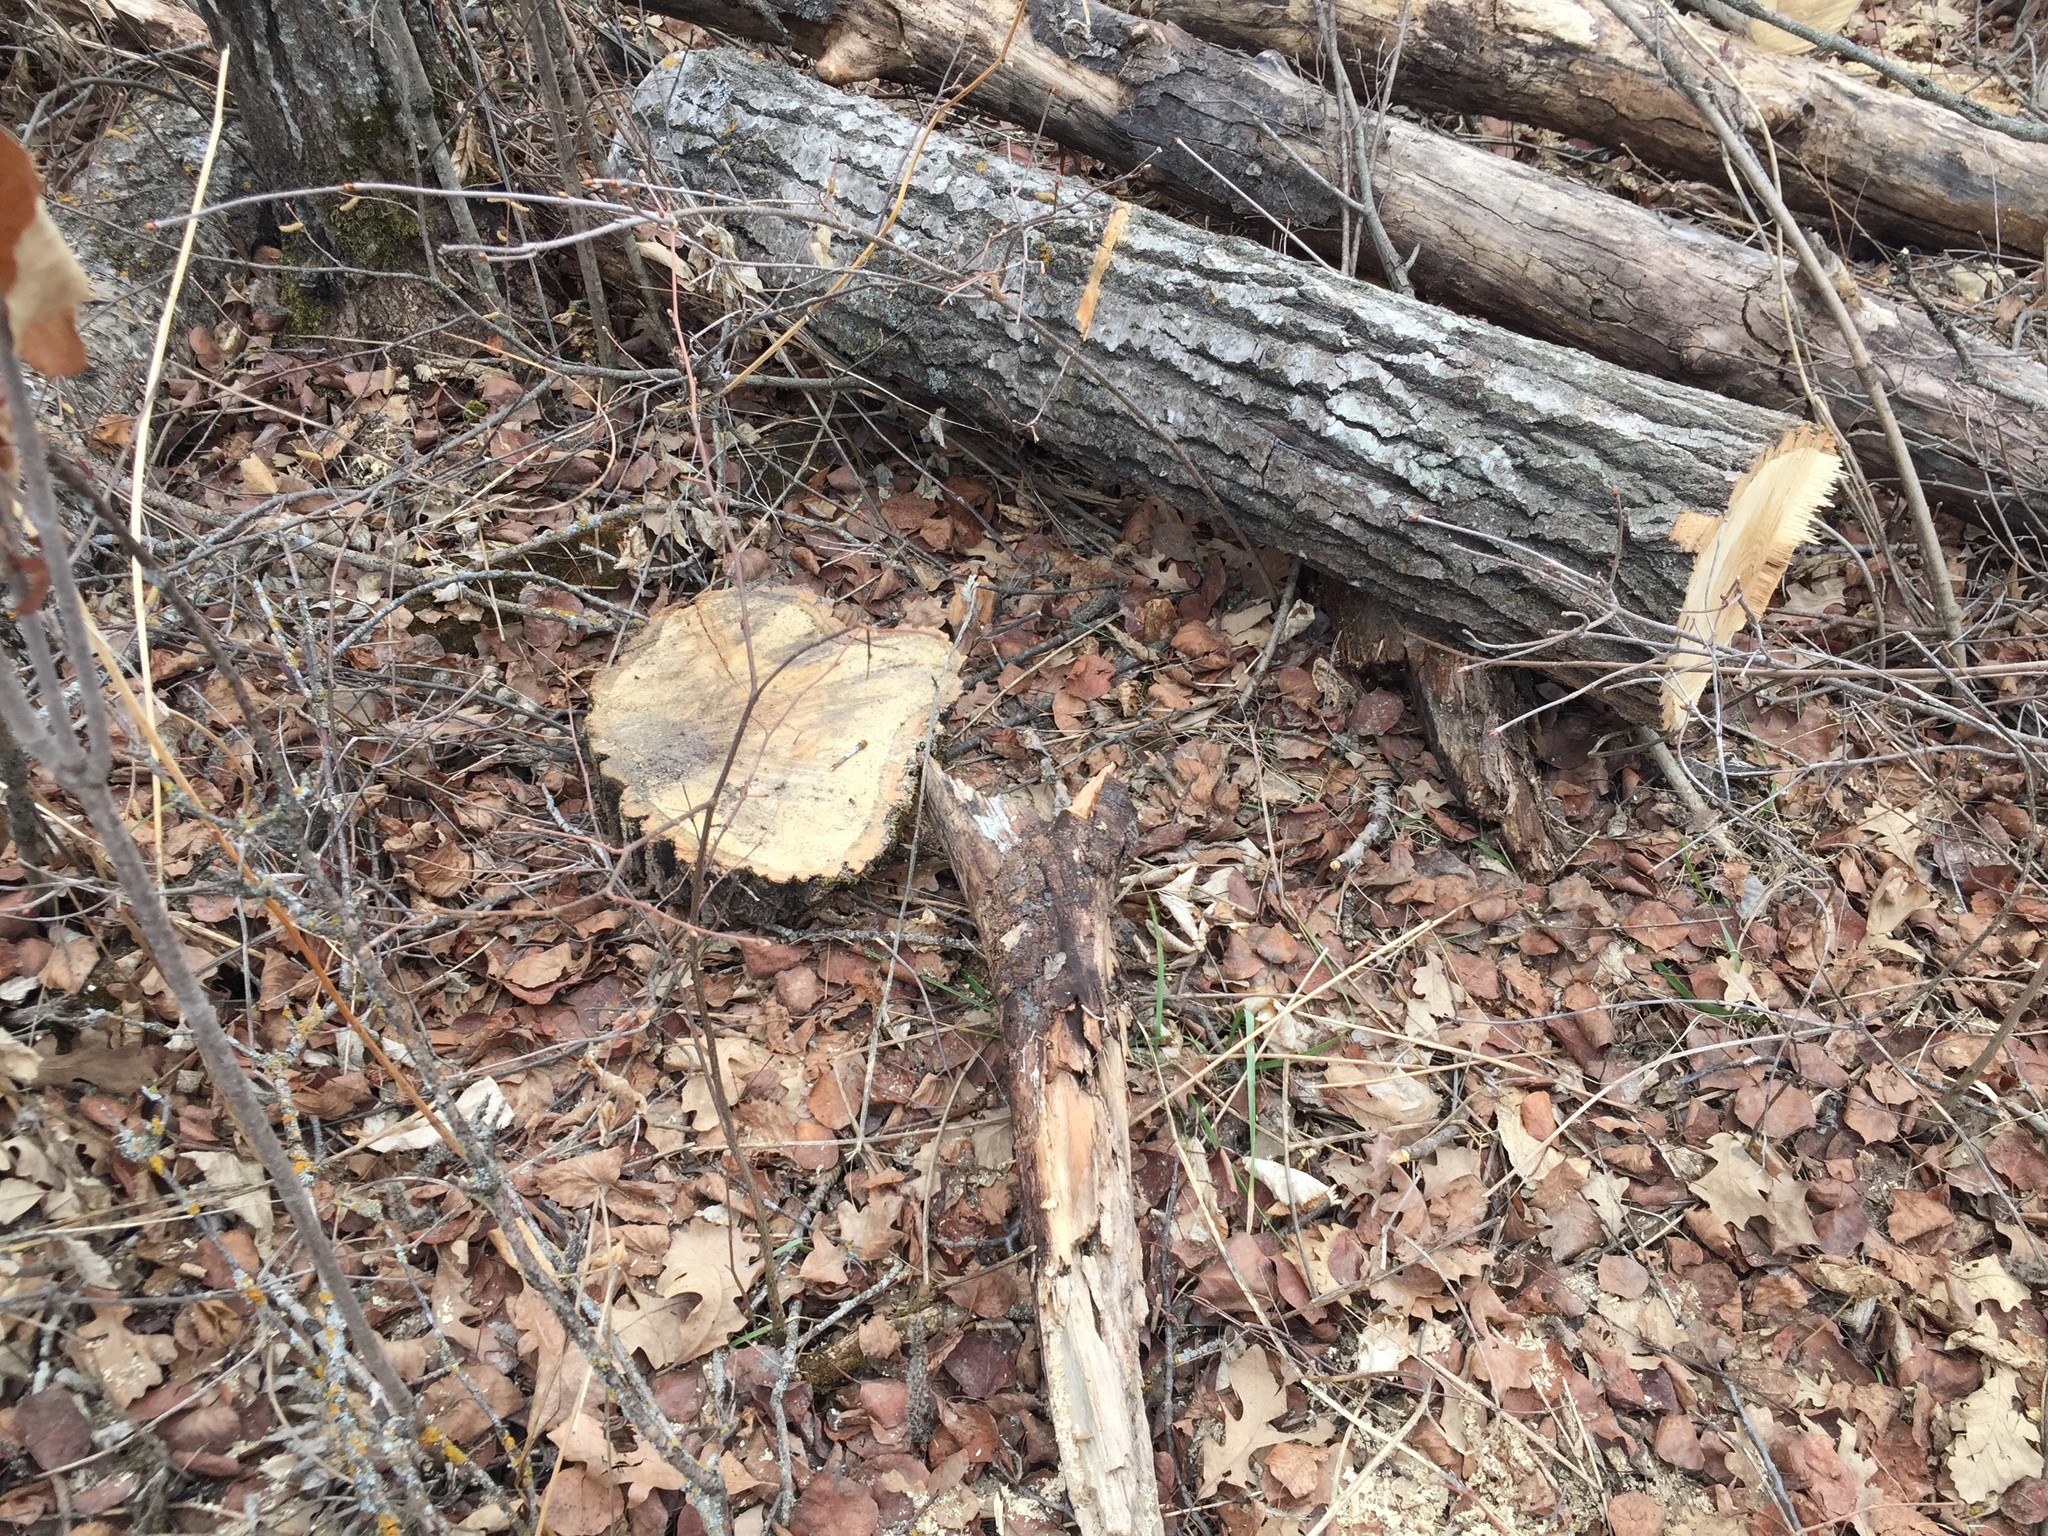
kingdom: Plantae
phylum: Tracheophyta
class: Magnoliopsida
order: Malpighiales
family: Salicaceae
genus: Populus
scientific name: Populus tremuloides
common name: Quaking aspen
